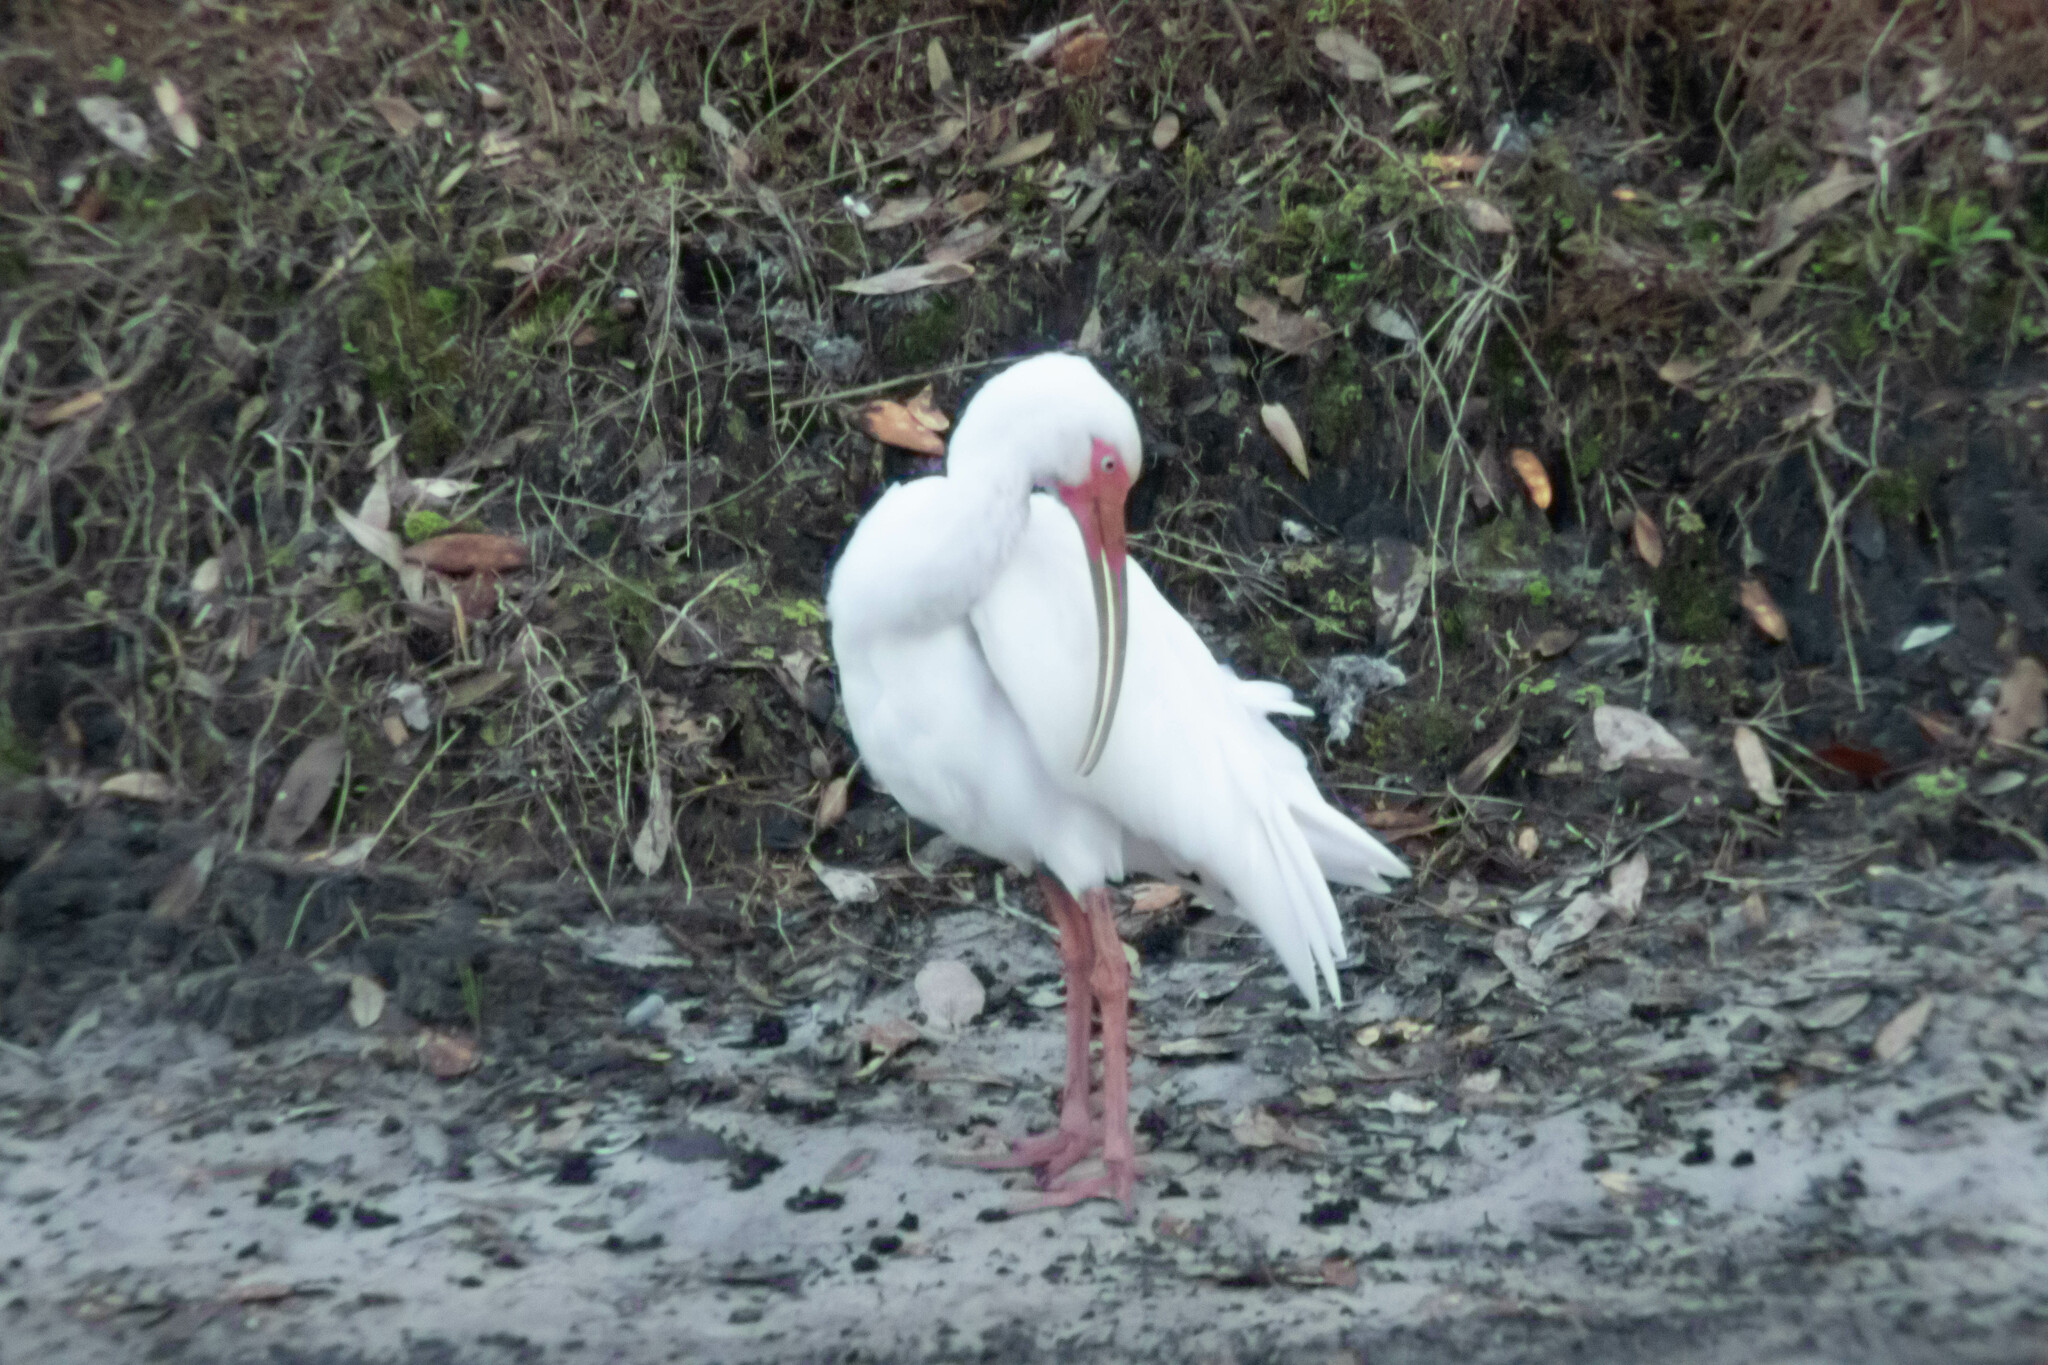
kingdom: Animalia
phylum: Chordata
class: Aves
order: Pelecaniformes
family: Threskiornithidae
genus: Eudocimus
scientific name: Eudocimus albus
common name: White ibis
